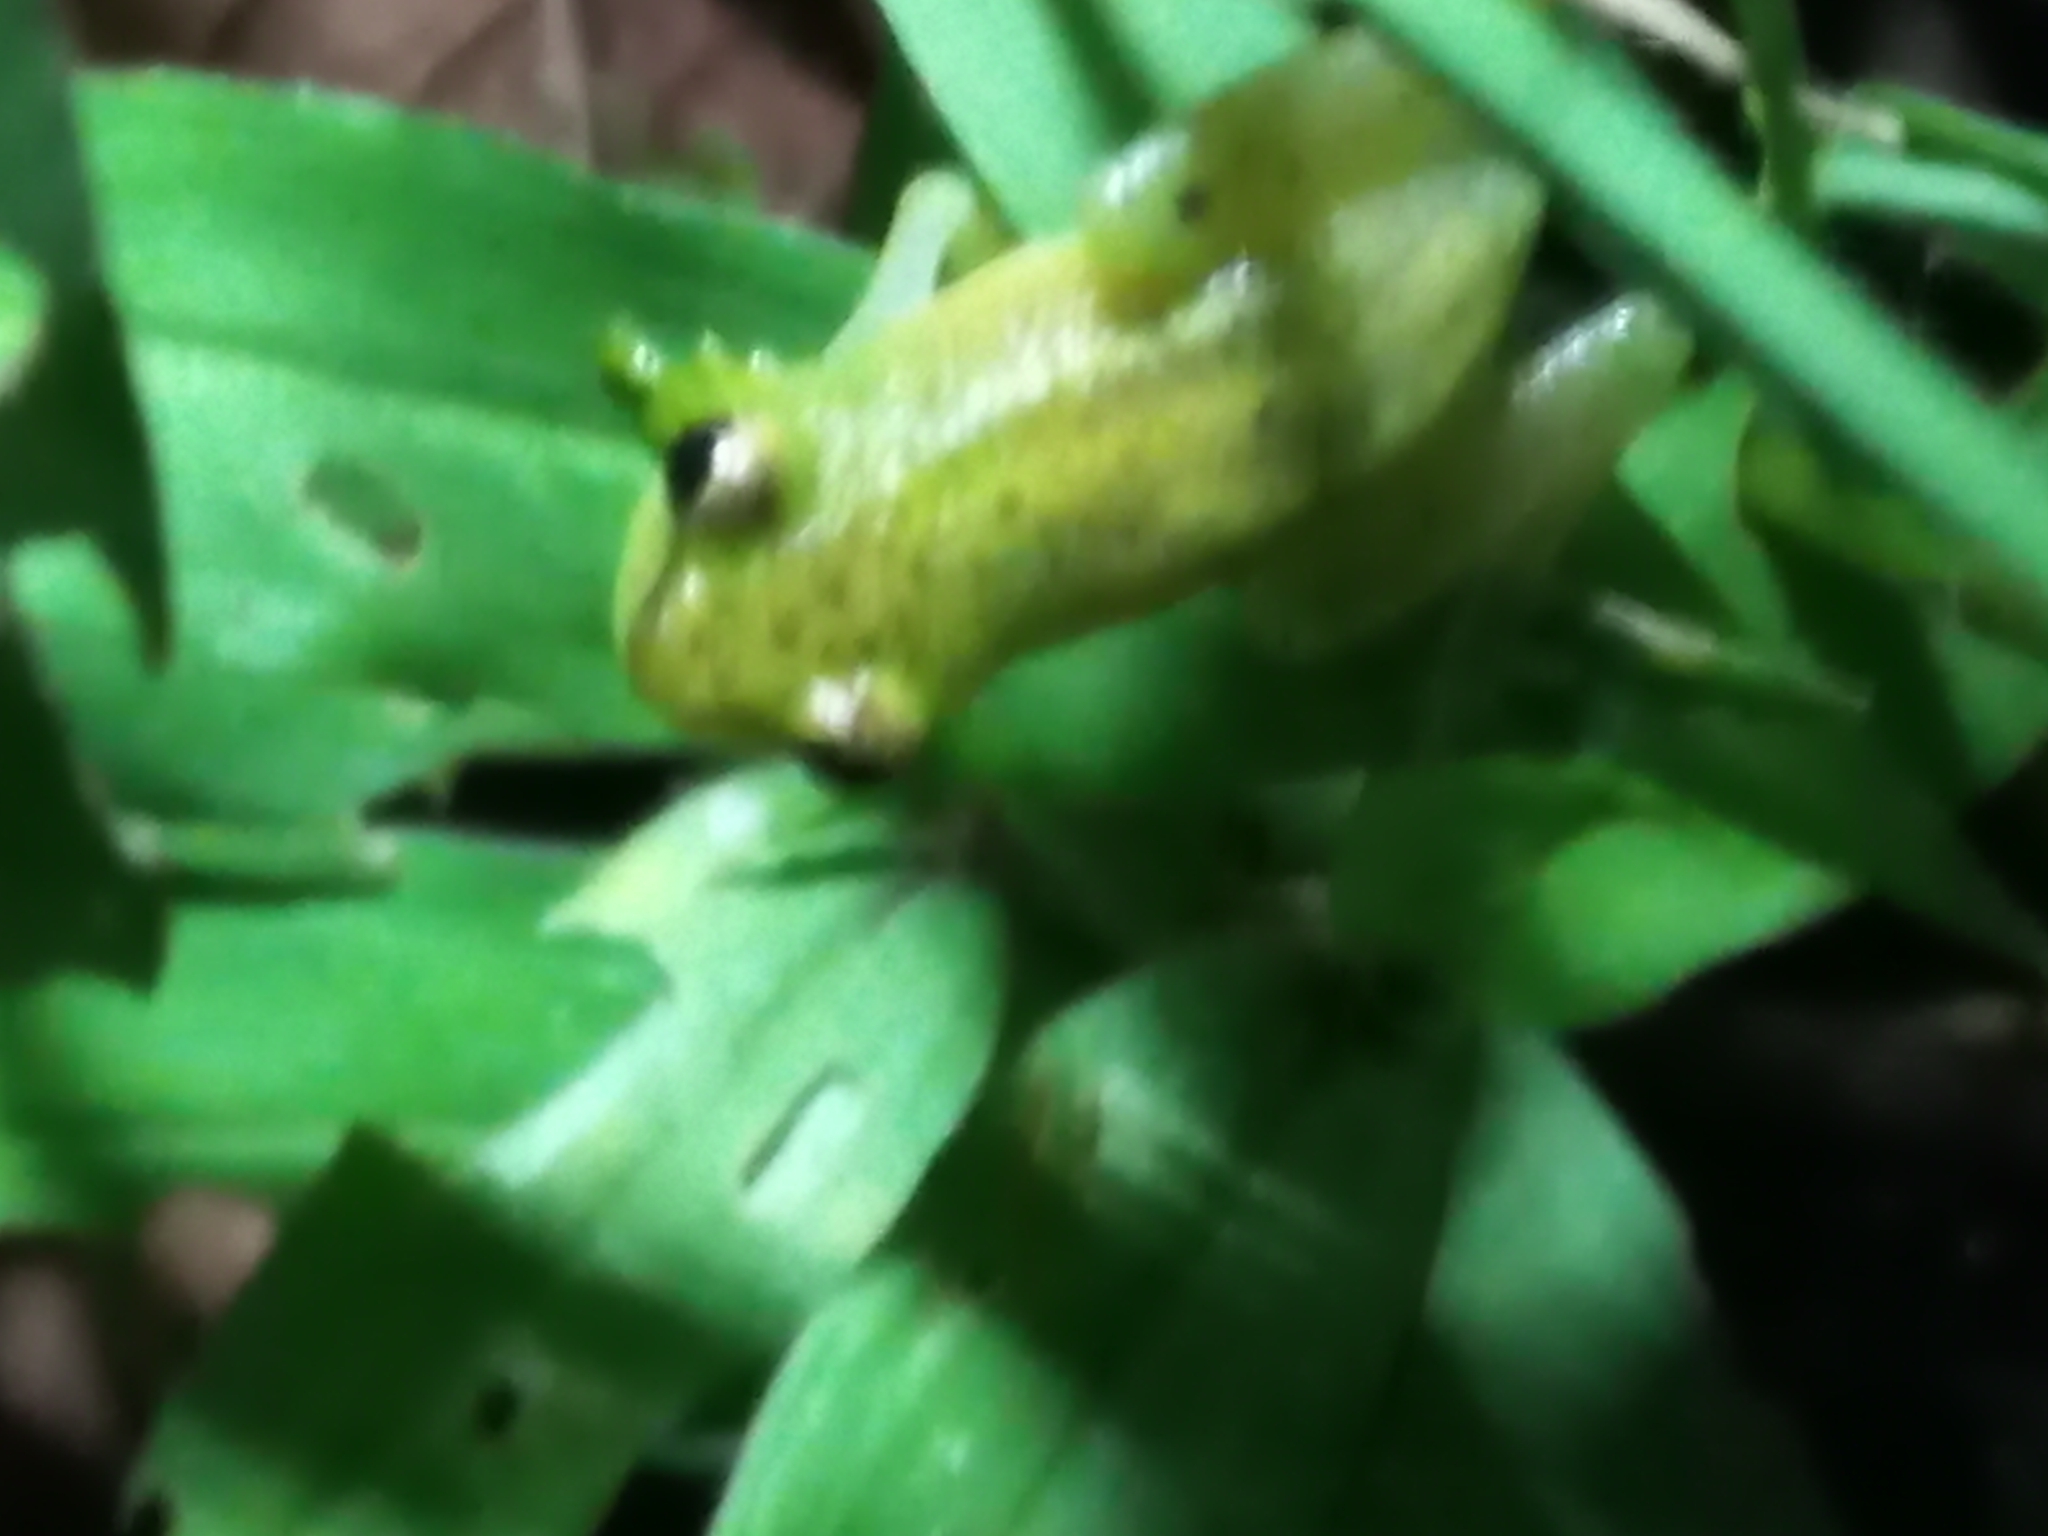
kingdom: Animalia
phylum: Chordata
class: Amphibia
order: Anura
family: Hyperoliidae
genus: Hyperolius
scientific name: Hyperolius pusillus
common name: Water lily reed frog
